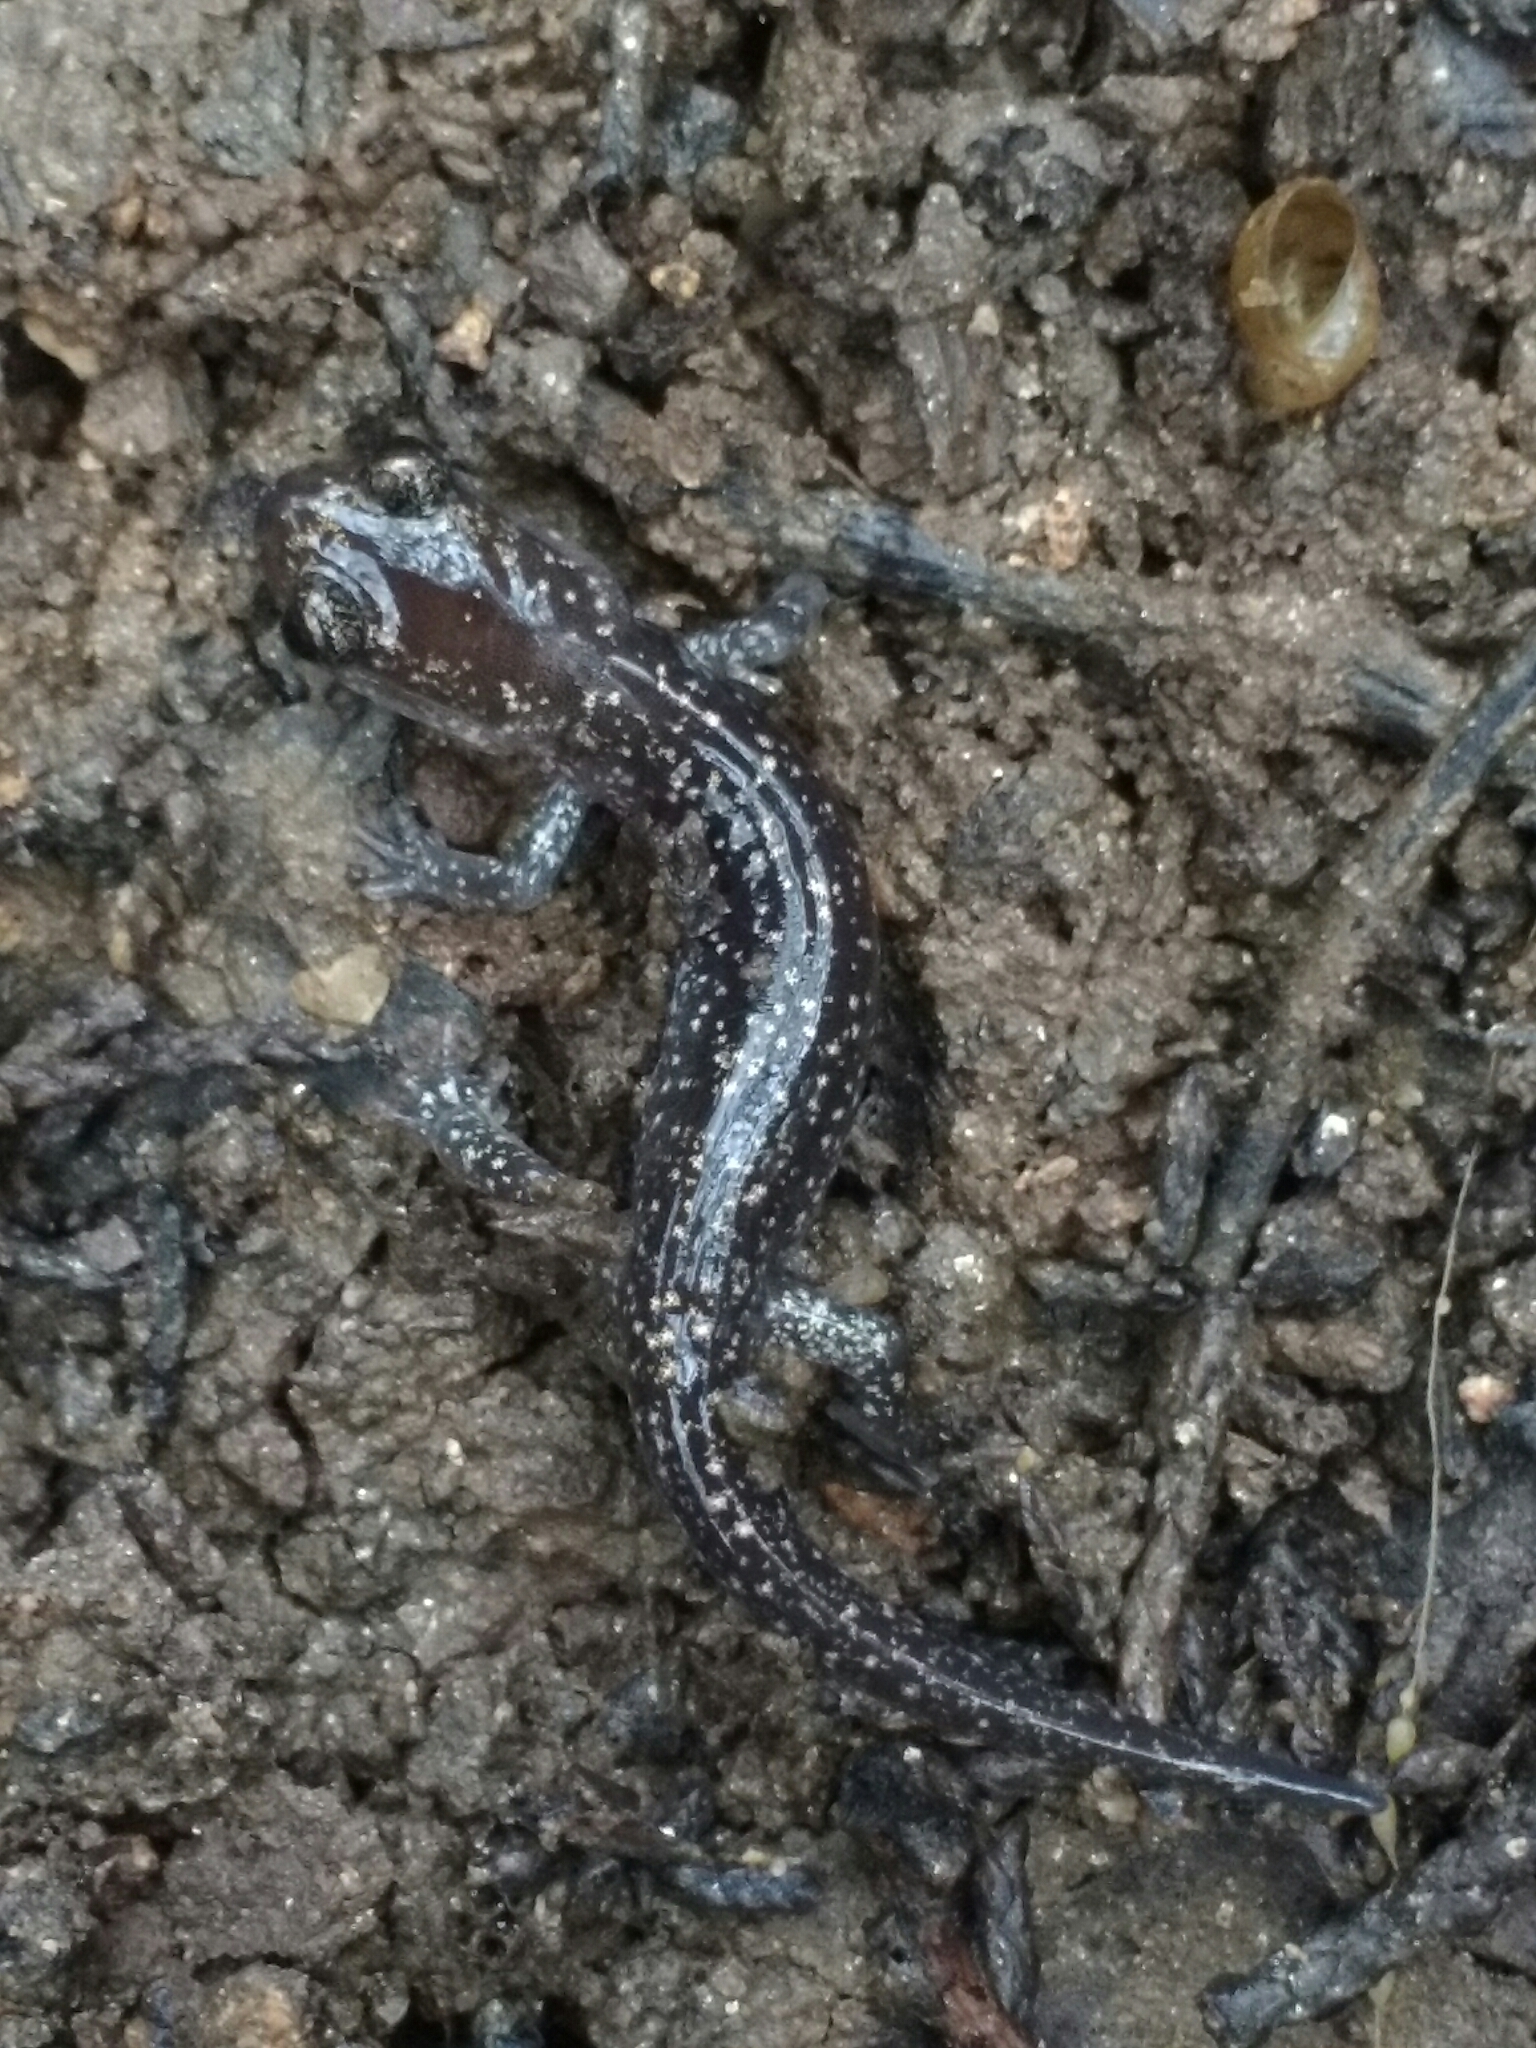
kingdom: Animalia
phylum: Chordata
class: Amphibia
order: Caudata
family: Plethodontidae
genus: Plethodon
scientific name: Plethodon albagula
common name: Western slimy salamander
